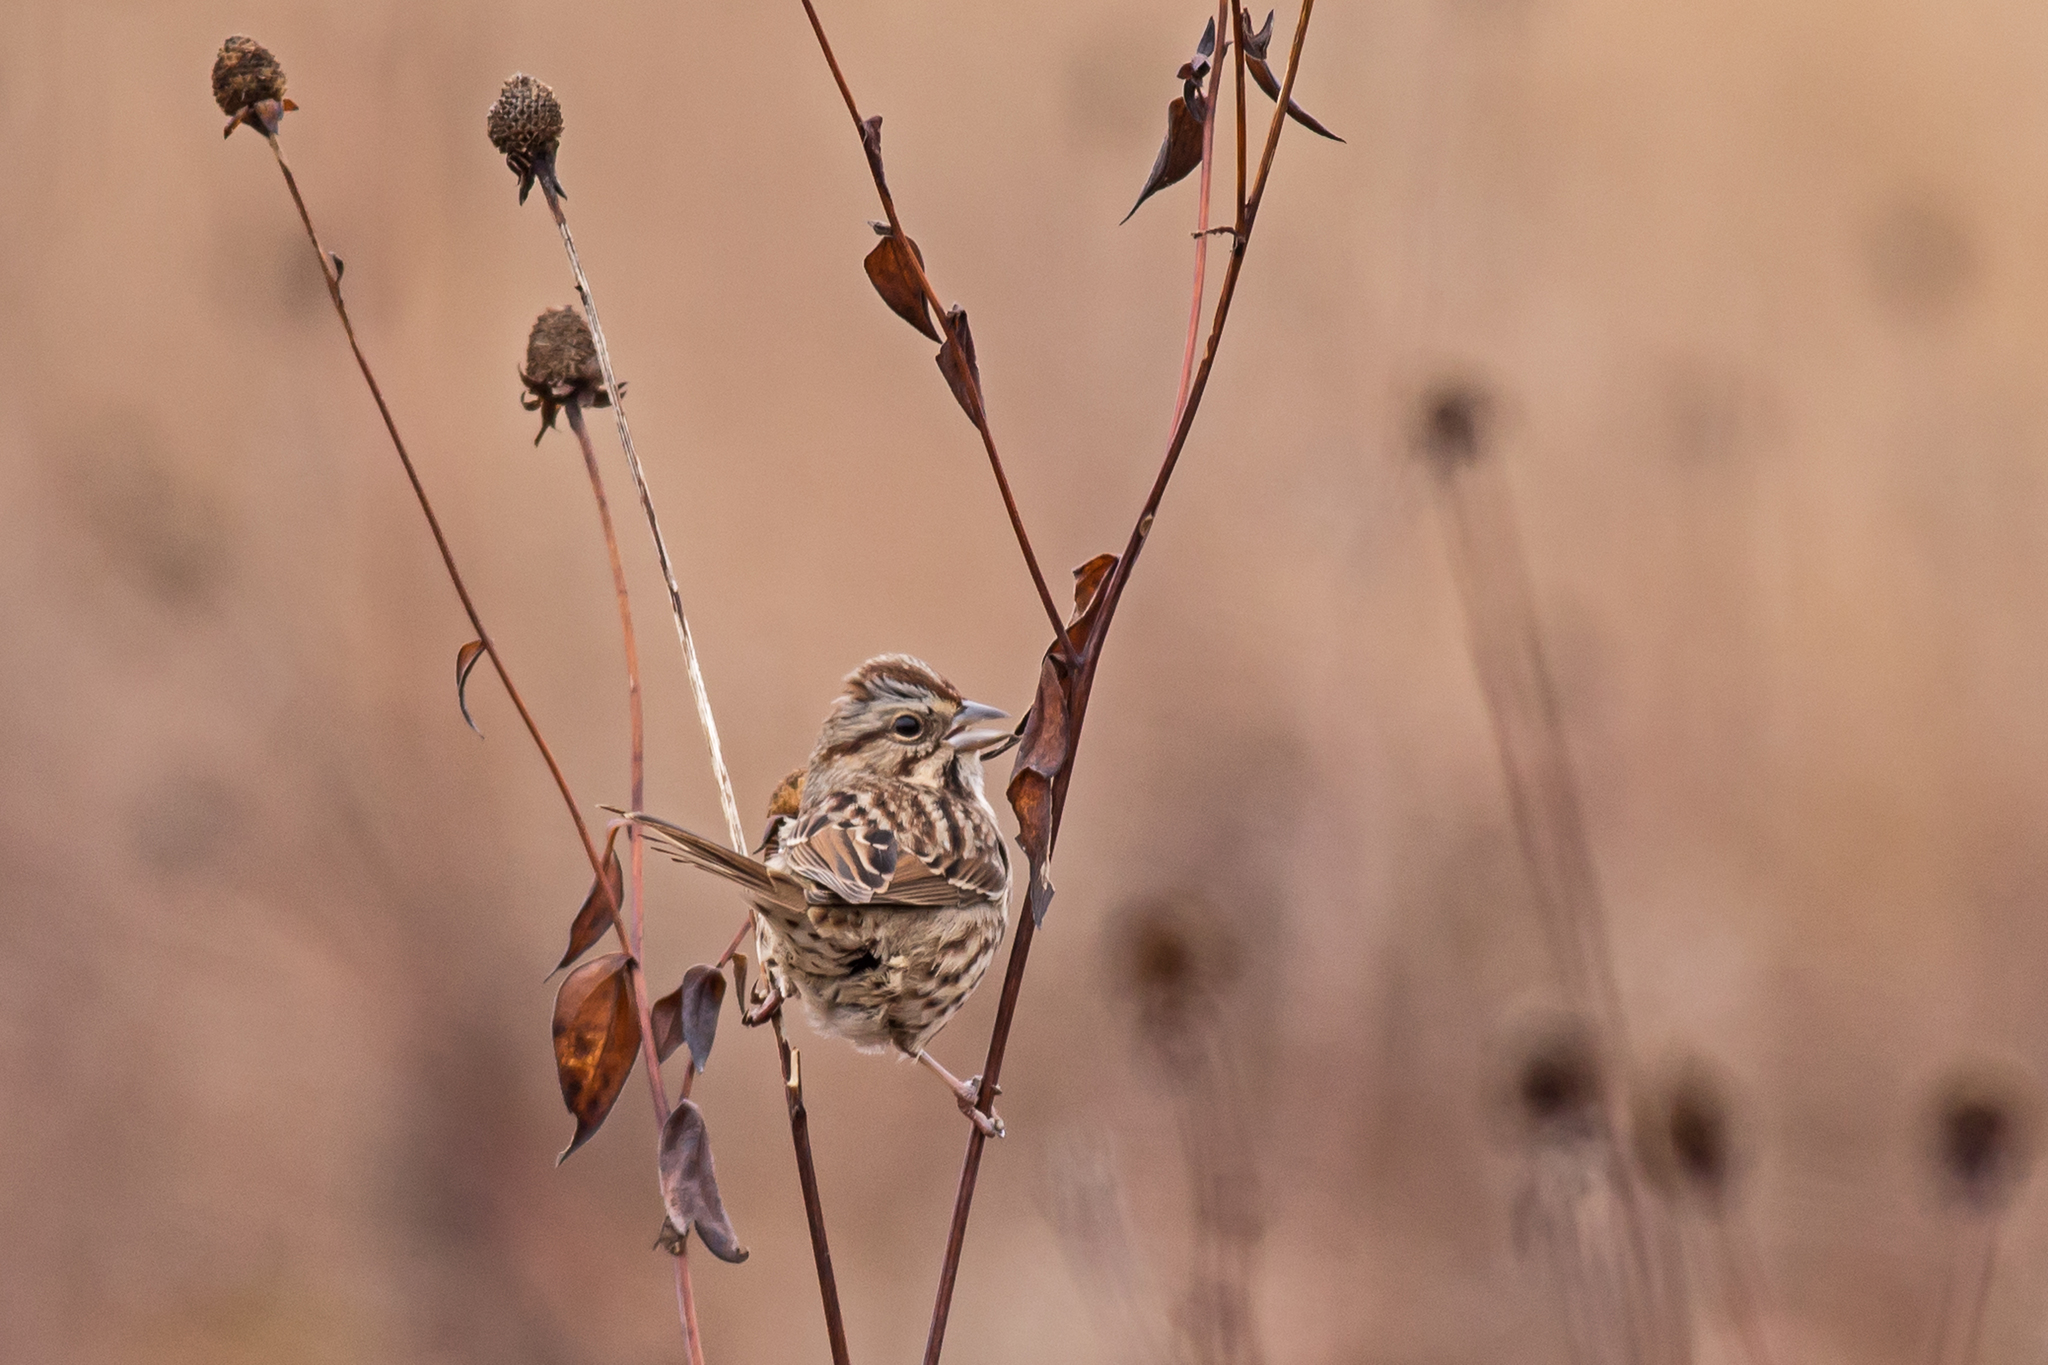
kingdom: Animalia
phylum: Chordata
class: Aves
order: Passeriformes
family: Passerellidae
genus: Melospiza
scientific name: Melospiza melodia
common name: Song sparrow
